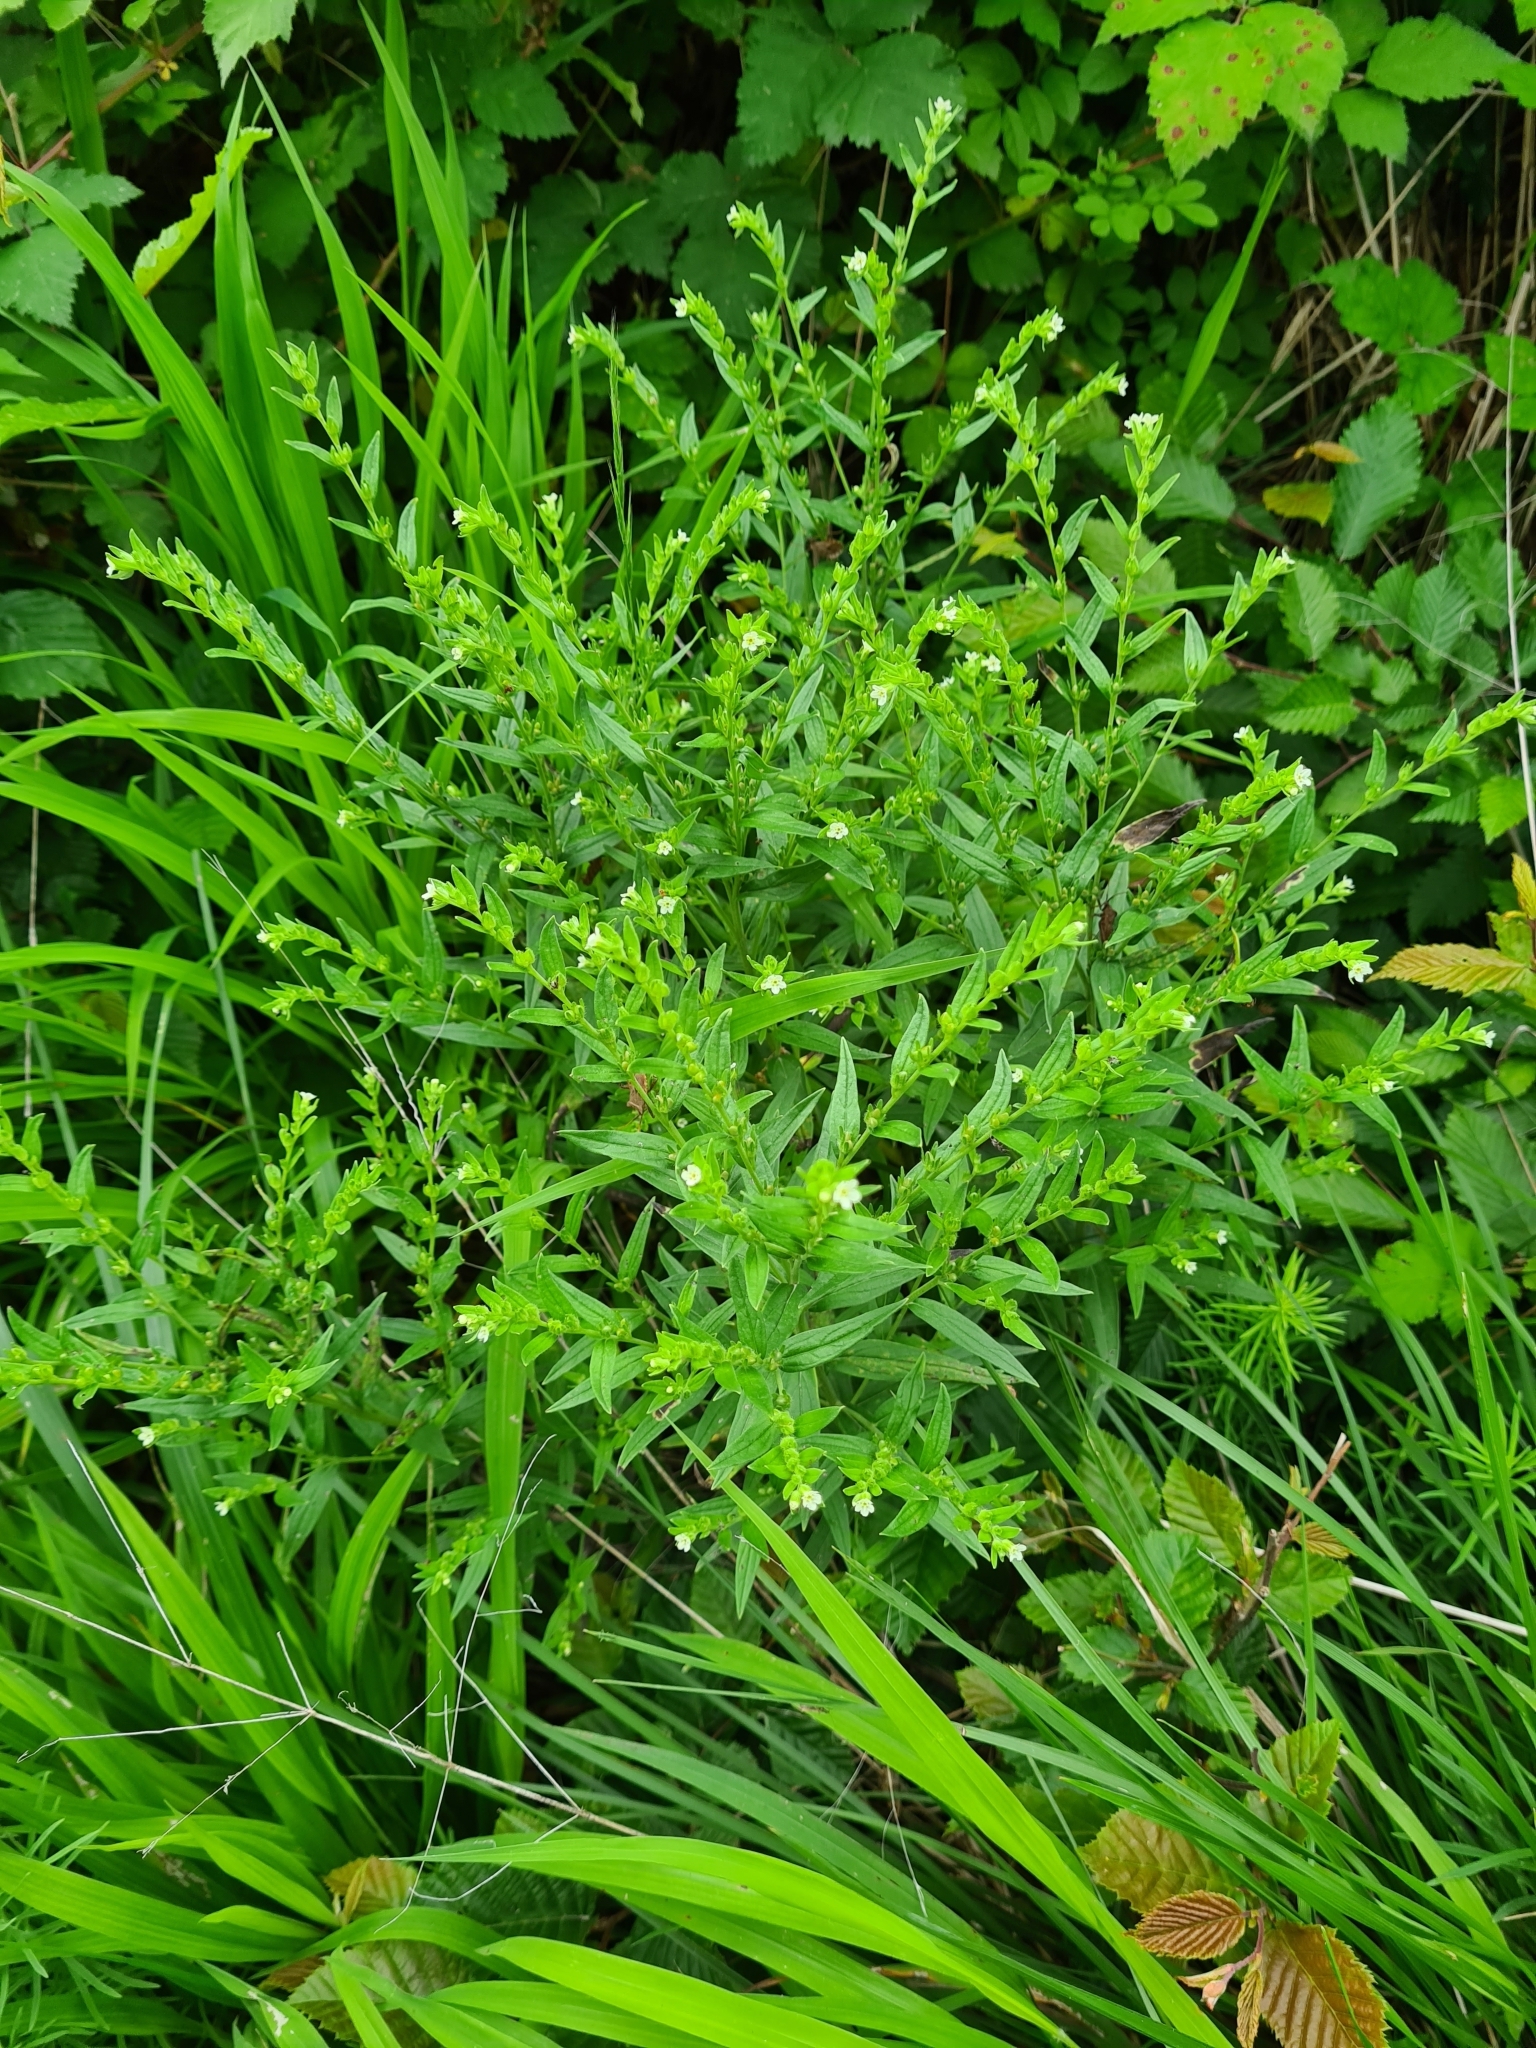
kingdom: Plantae
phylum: Tracheophyta
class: Magnoliopsida
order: Boraginales
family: Boraginaceae
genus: Lithospermum
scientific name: Lithospermum officinale
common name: Common gromwell
